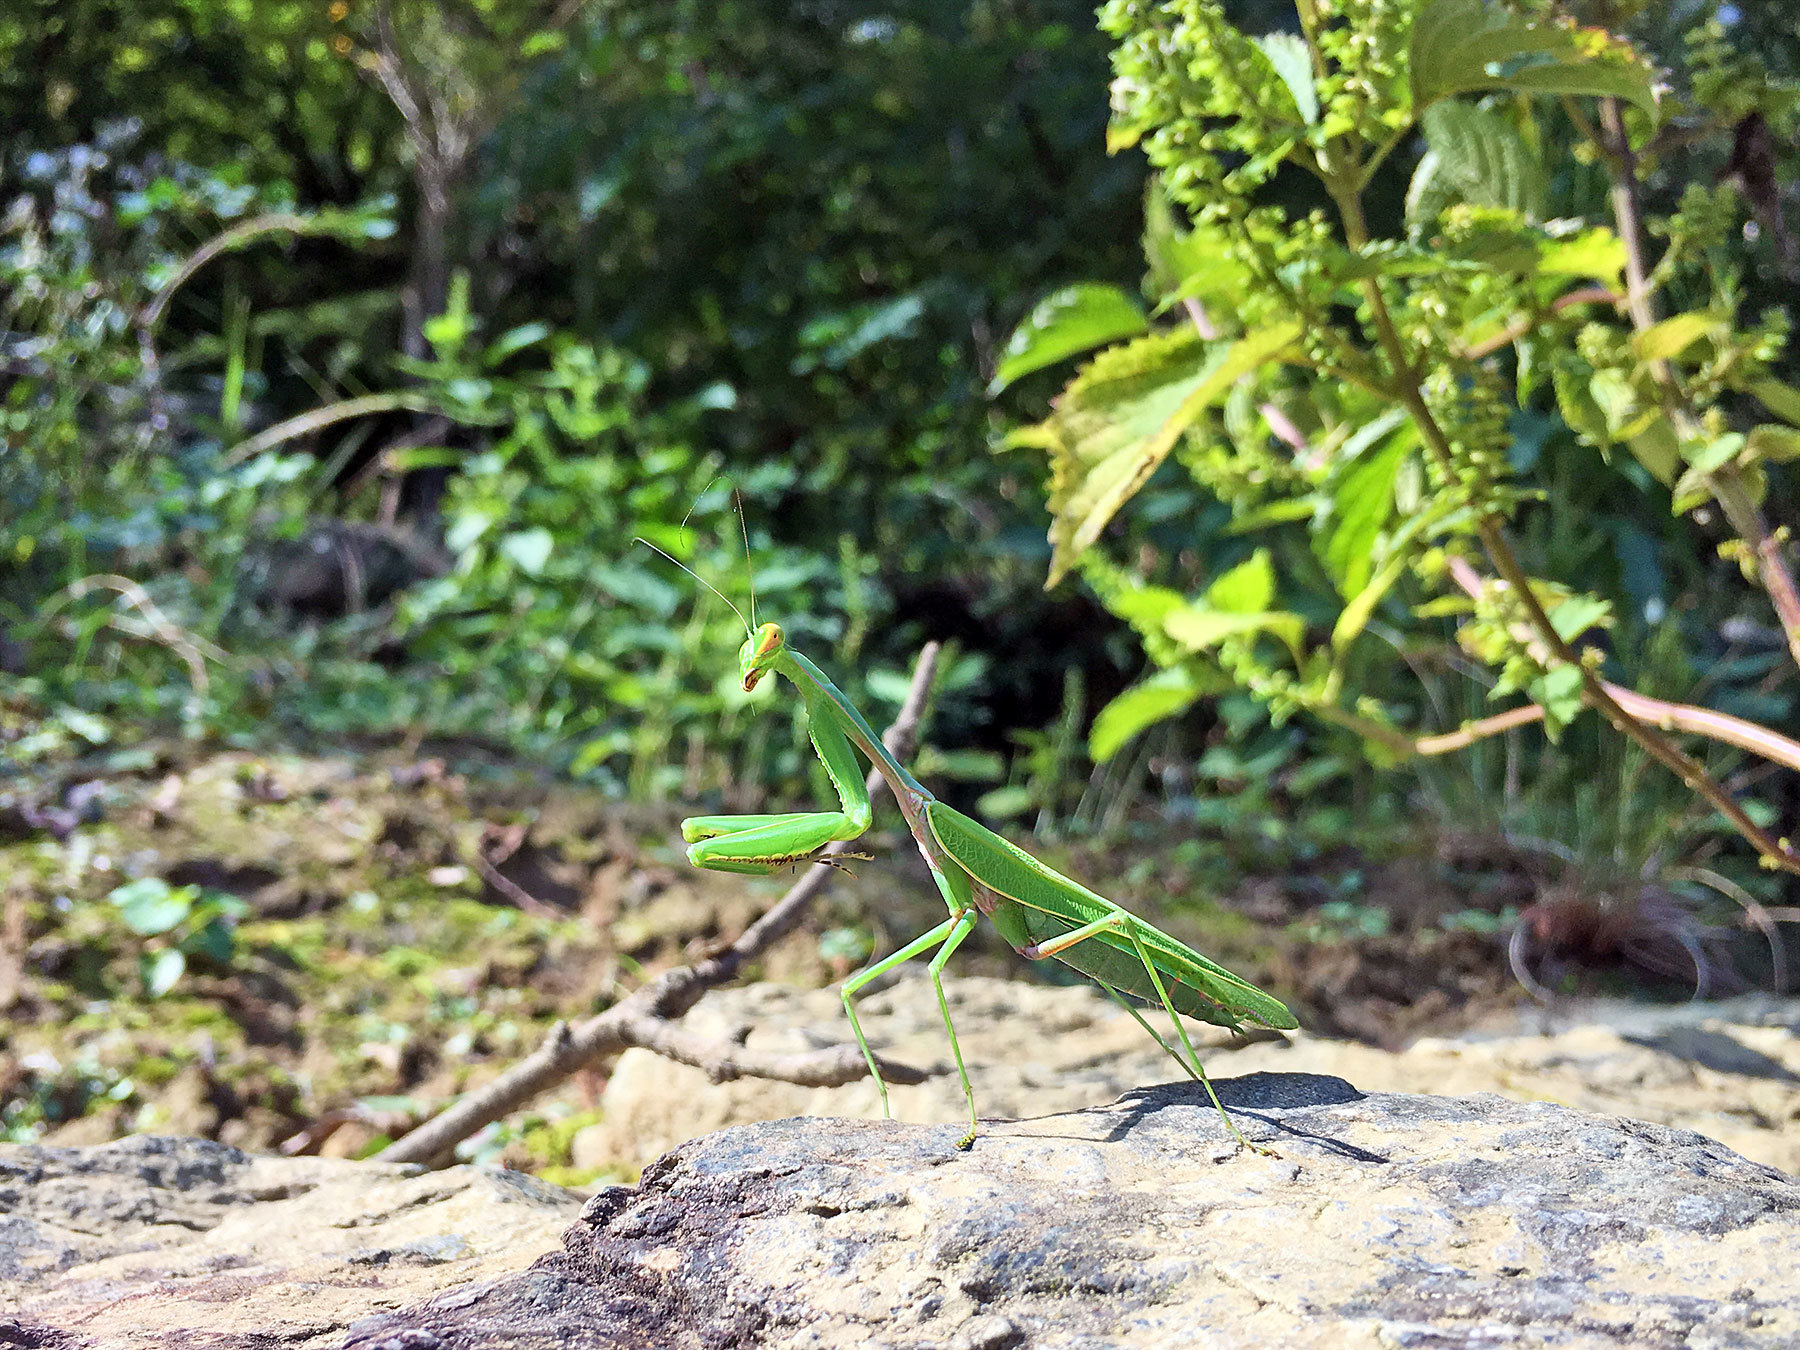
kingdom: Animalia
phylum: Arthropoda
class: Insecta
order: Mantodea
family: Mantidae
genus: Hierodula
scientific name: Hierodula chinensis
